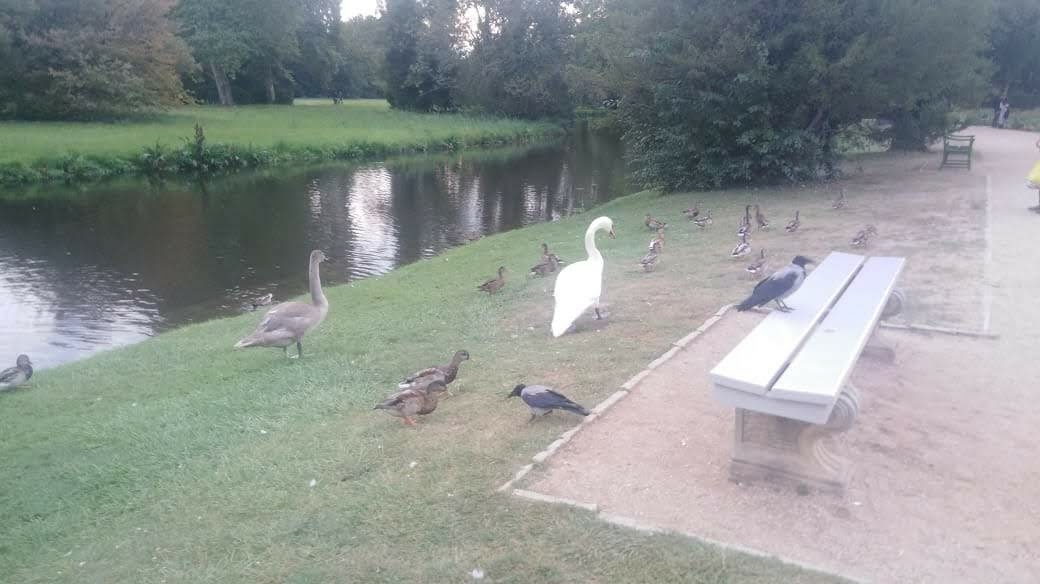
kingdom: Animalia
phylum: Chordata
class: Aves
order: Anseriformes
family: Anatidae
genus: Cygnus
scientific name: Cygnus olor
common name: Mute swan
